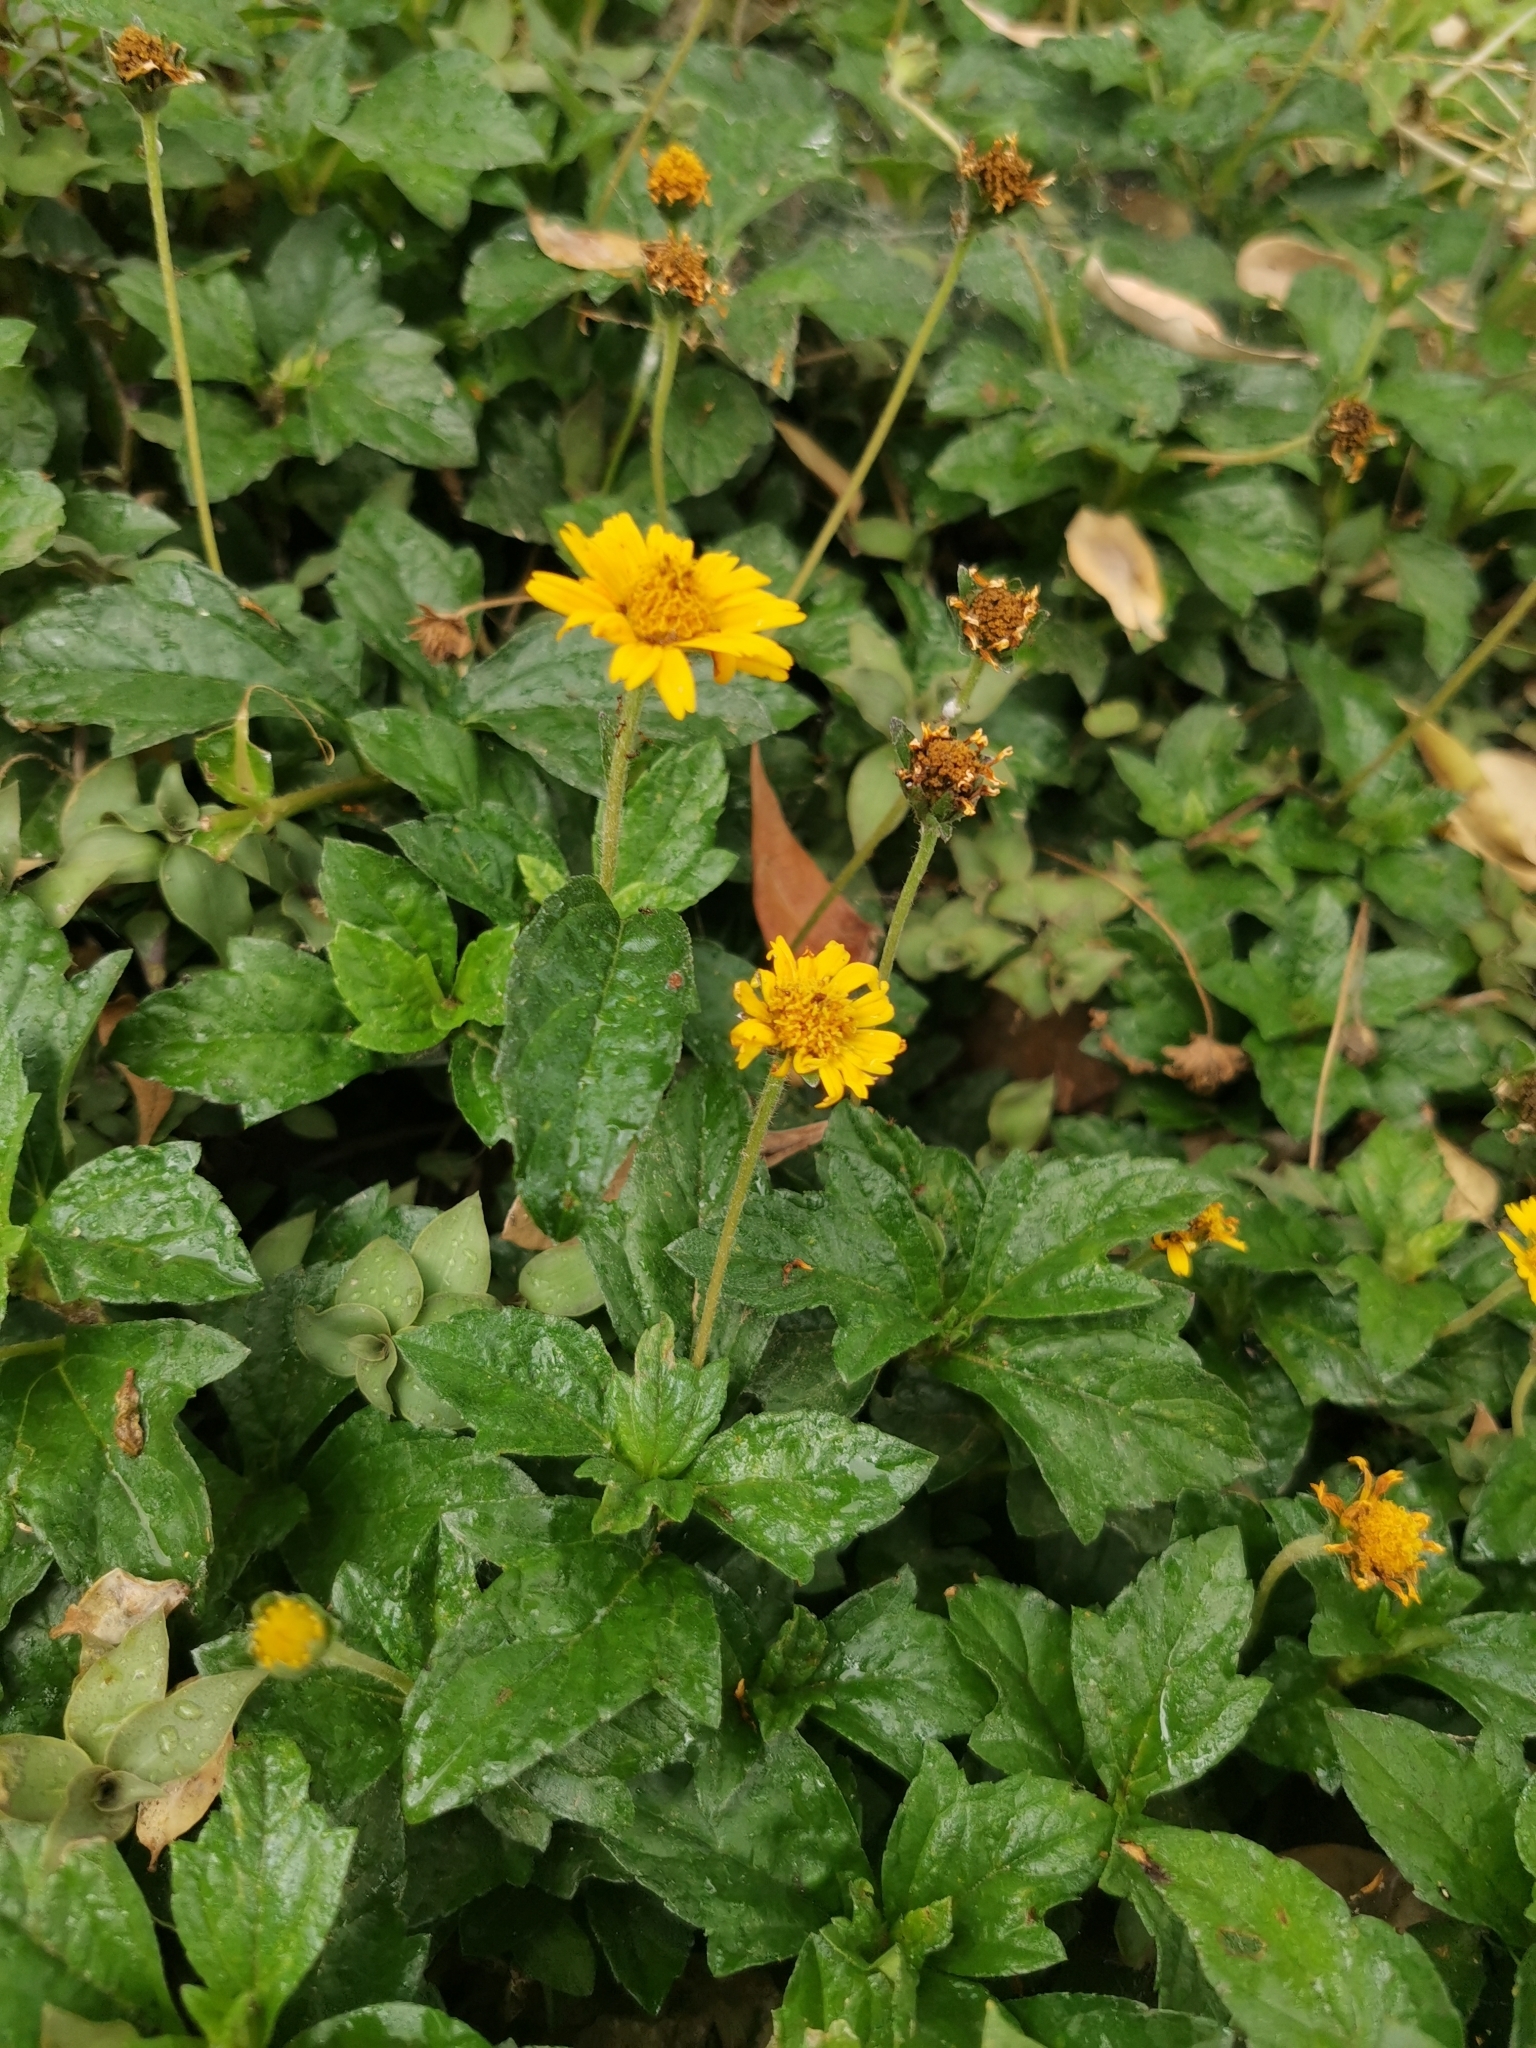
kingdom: Plantae
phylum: Tracheophyta
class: Magnoliopsida
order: Asterales
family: Asteraceae
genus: Sphagneticola
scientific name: Sphagneticola trilobata
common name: Bay biscayne creeping-oxeye
